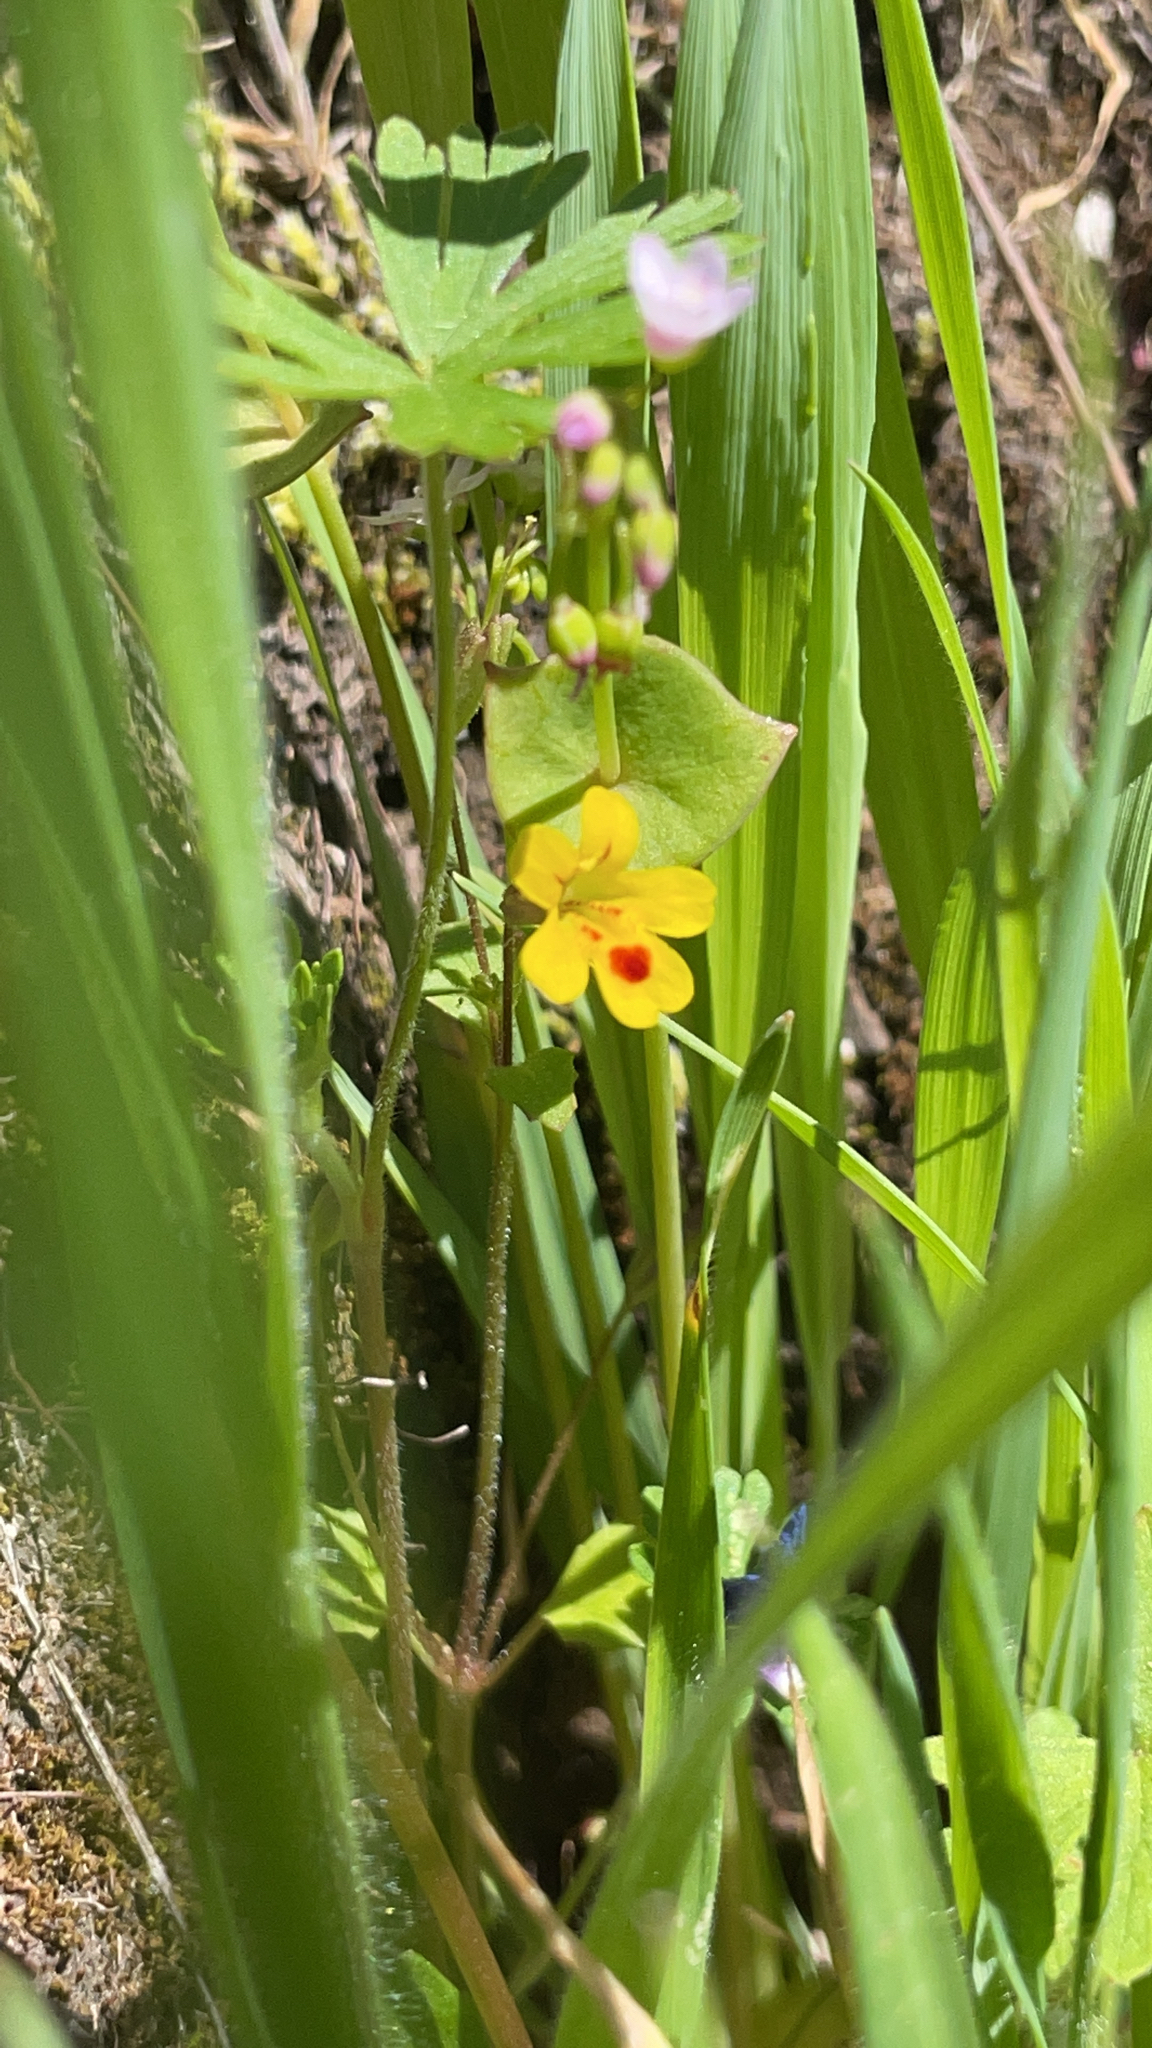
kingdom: Plantae
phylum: Tracheophyta
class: Magnoliopsida
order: Lamiales
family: Phrymaceae
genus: Erythranthe
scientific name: Erythranthe alsinoides
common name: Chickweed monkeyflower
